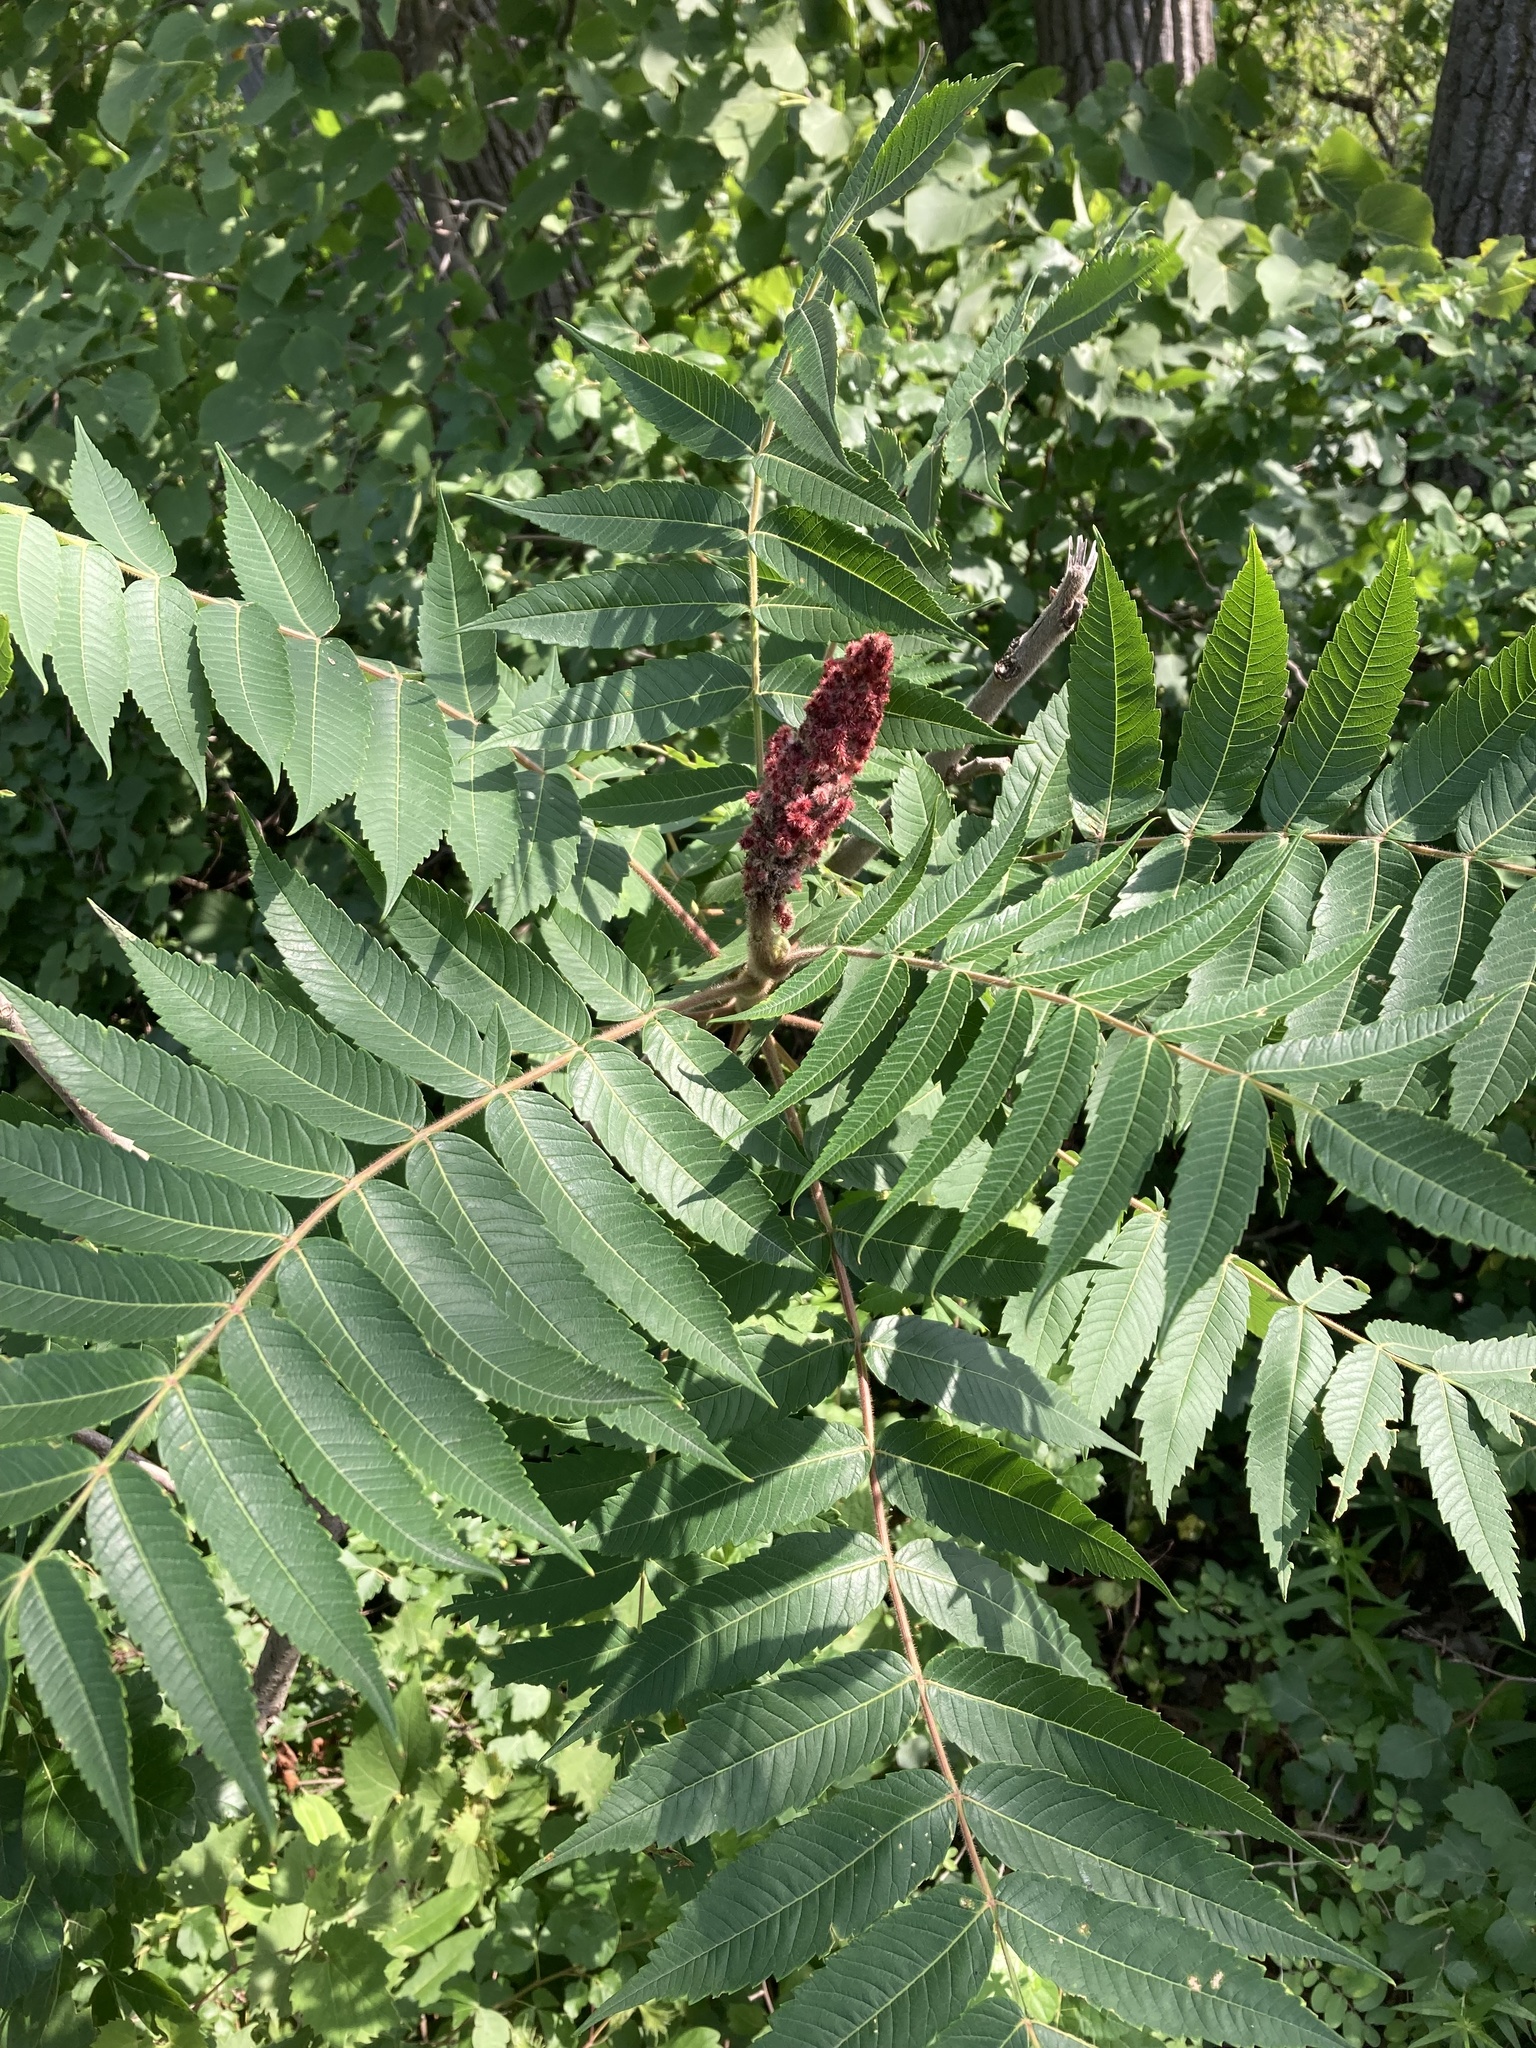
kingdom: Plantae
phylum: Tracheophyta
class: Magnoliopsida
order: Sapindales
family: Anacardiaceae
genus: Rhus
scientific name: Rhus typhina
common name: Staghorn sumac
